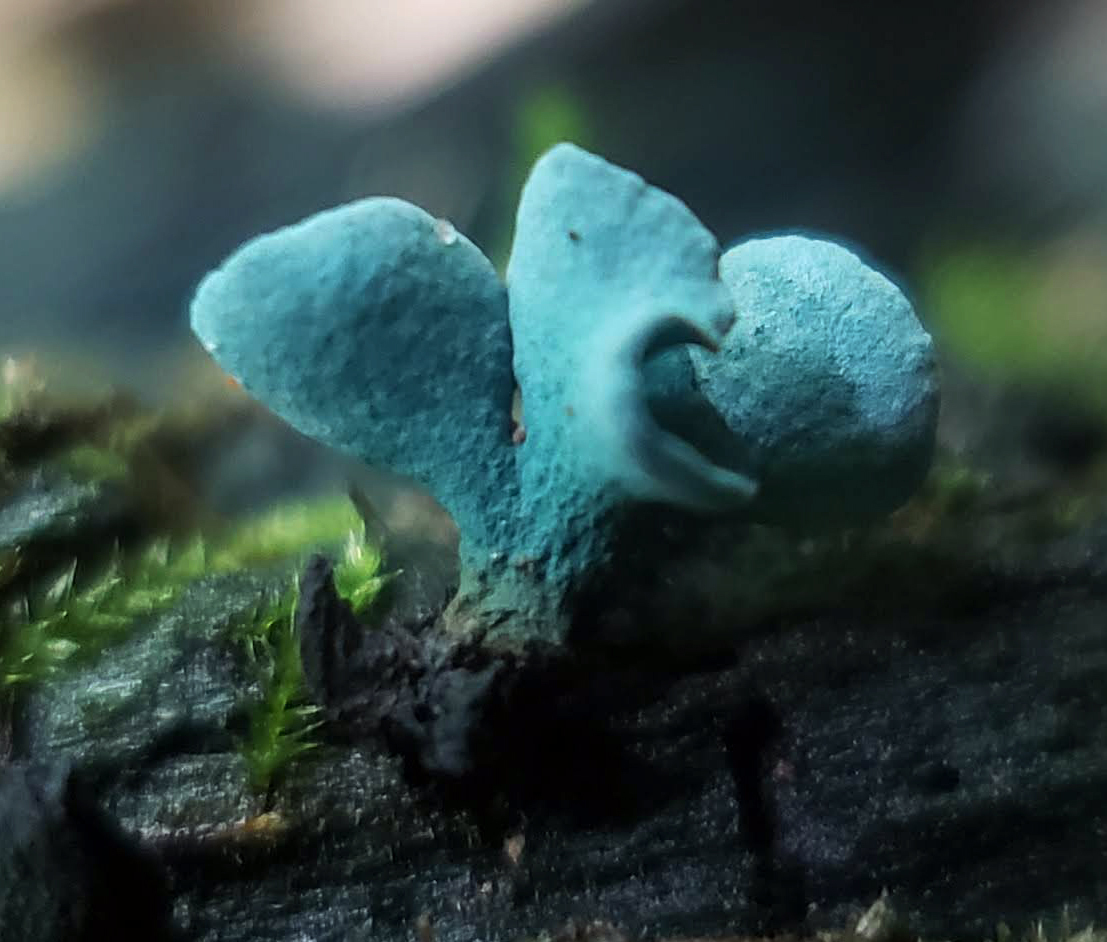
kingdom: Fungi
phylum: Ascomycota
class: Leotiomycetes
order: Helotiales
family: Chlorociboriaceae
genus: Chlorociboria
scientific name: Chlorociboria
